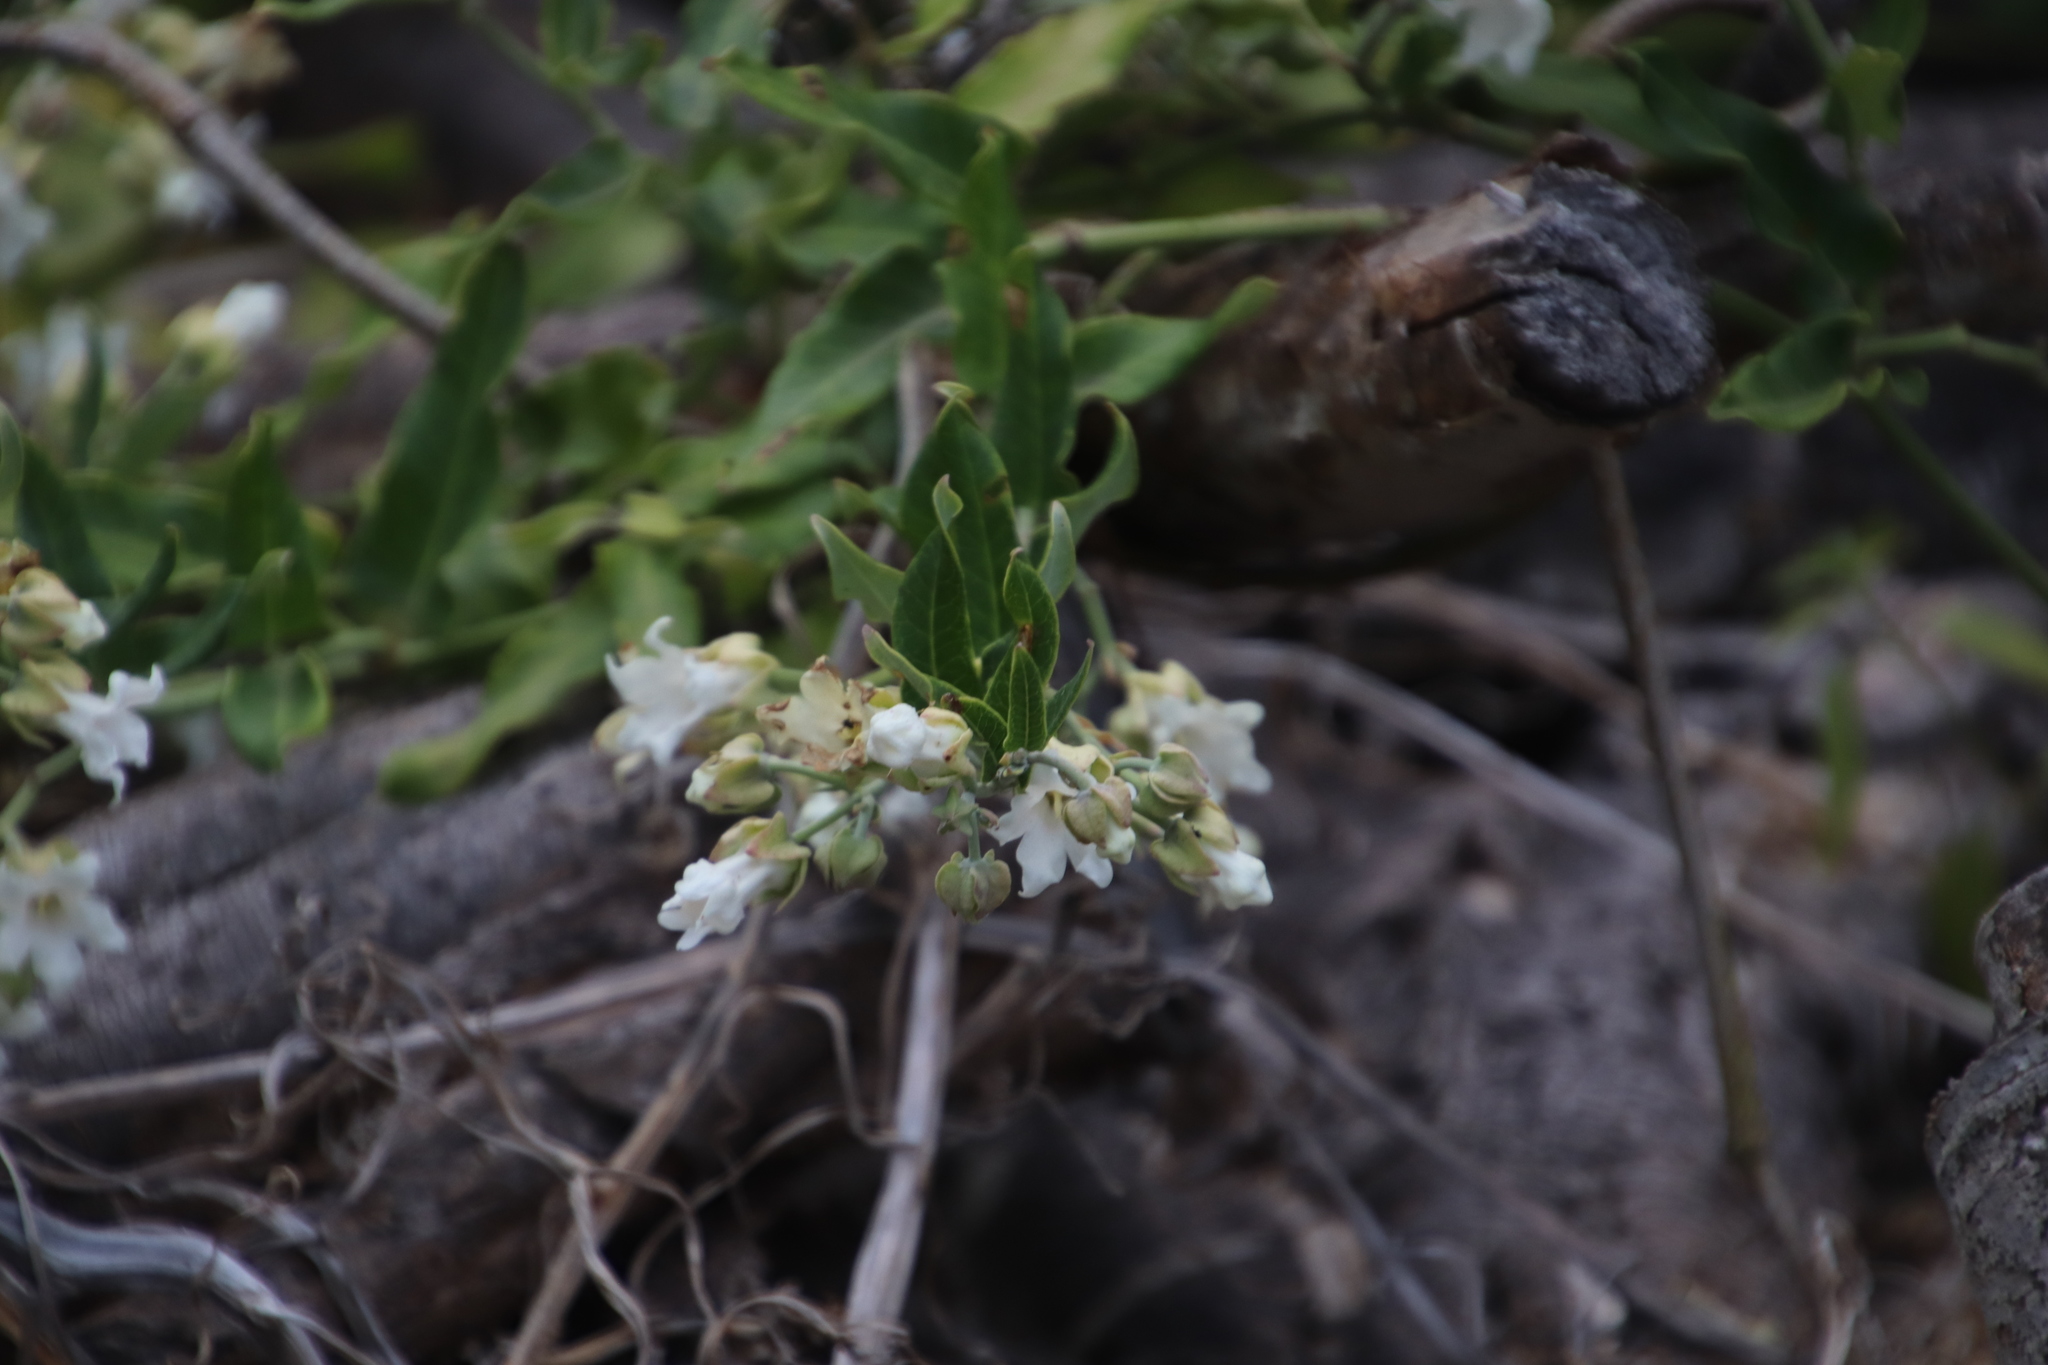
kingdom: Plantae
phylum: Tracheophyta
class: Magnoliopsida
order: Gentianales
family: Apocynaceae
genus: Araujia
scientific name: Araujia sericifera
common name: White bladderflower
